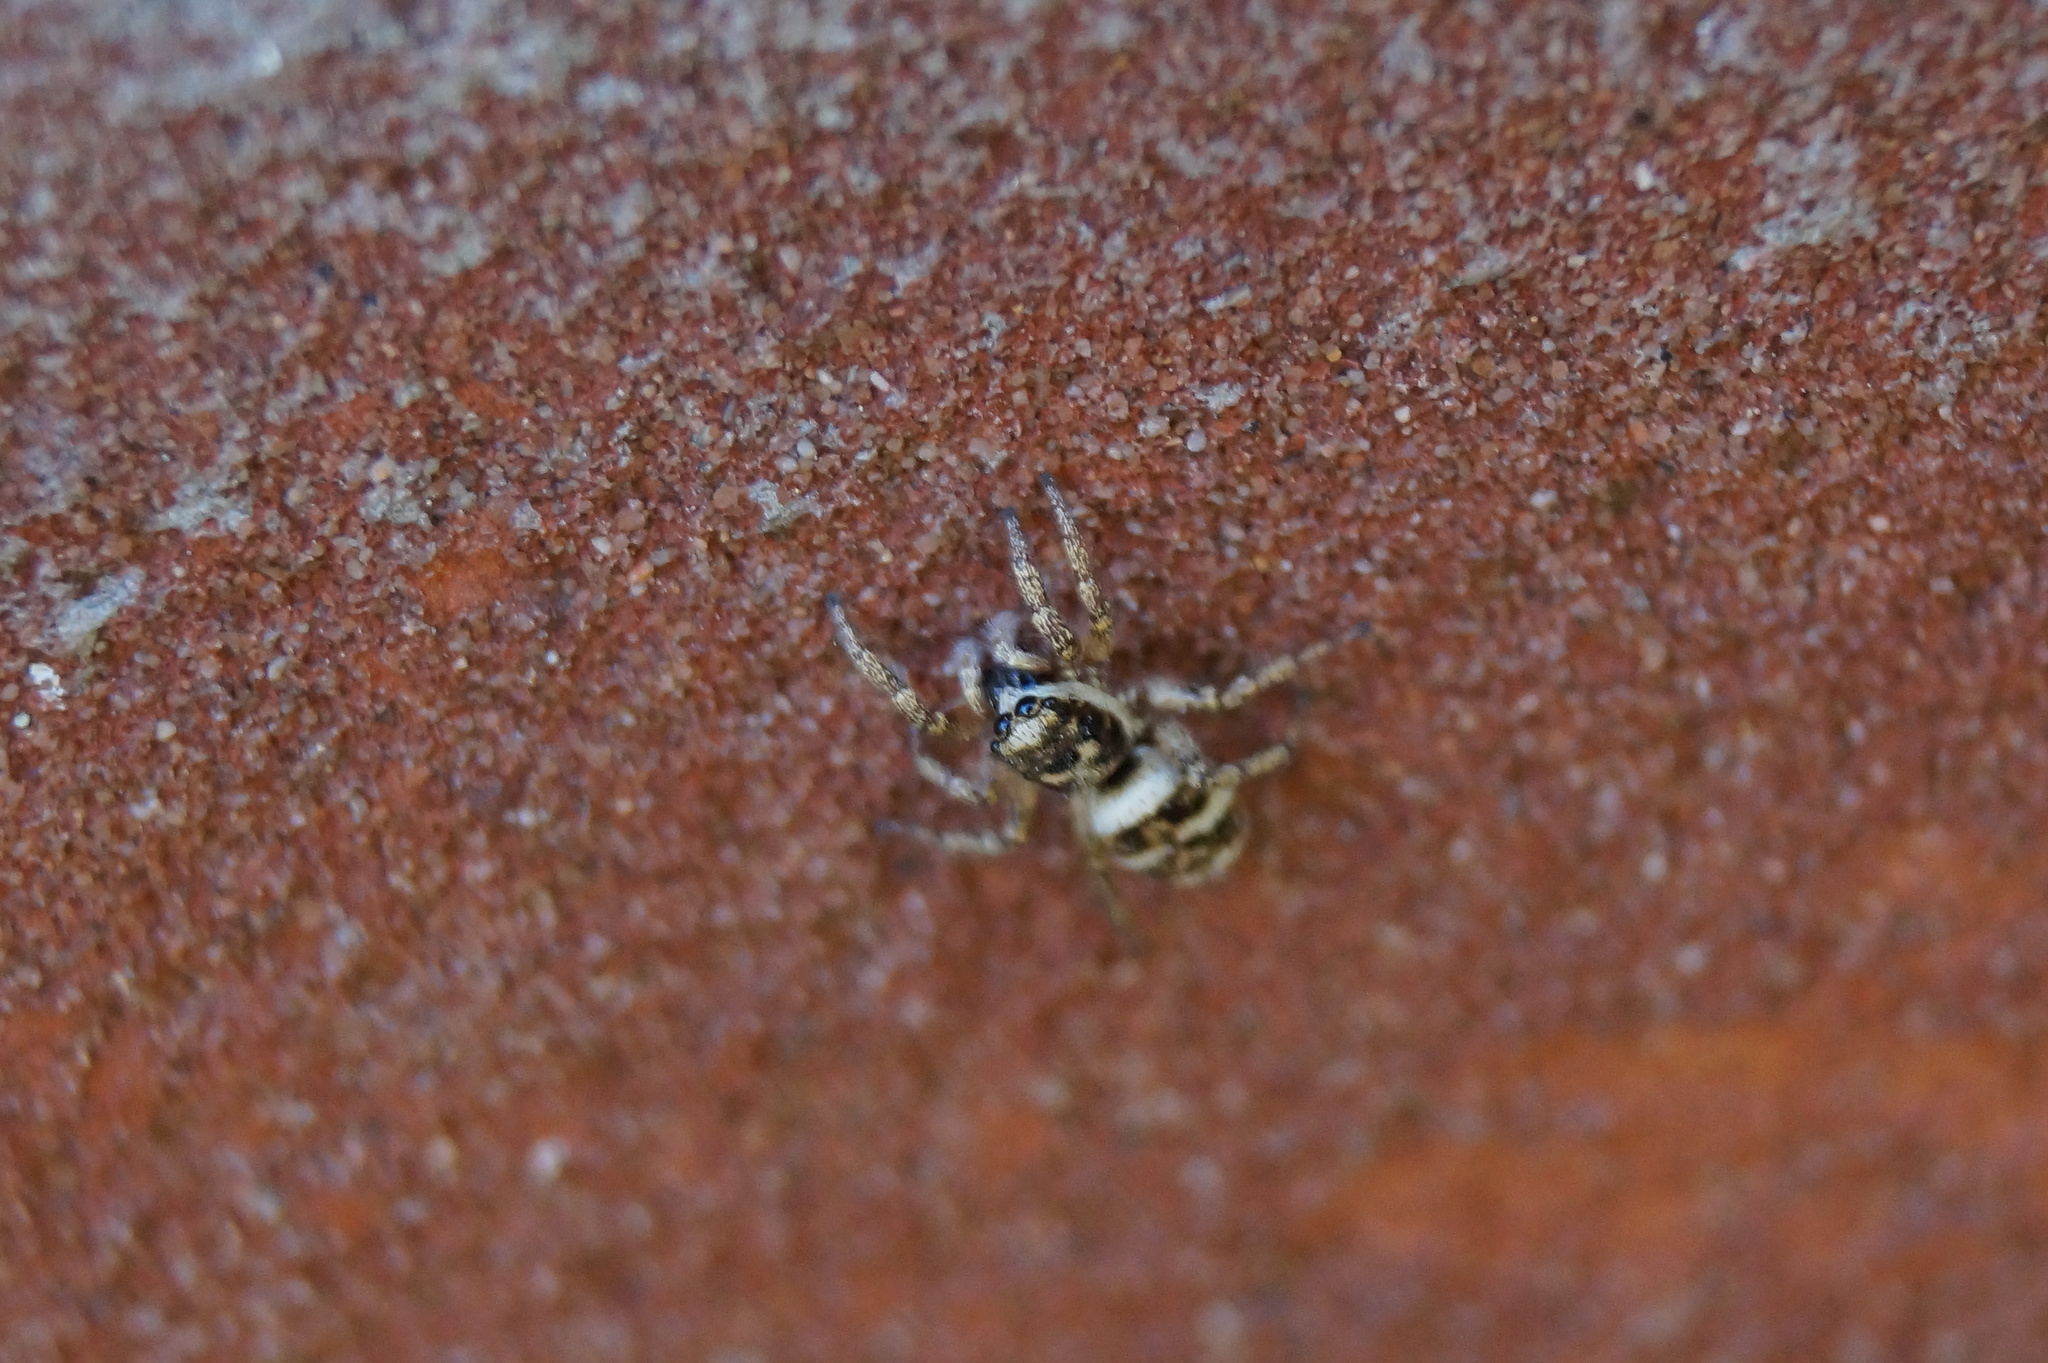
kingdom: Animalia
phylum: Arthropoda
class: Arachnida
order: Araneae
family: Salticidae
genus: Salticus
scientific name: Salticus scenicus
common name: Zebra jumper
